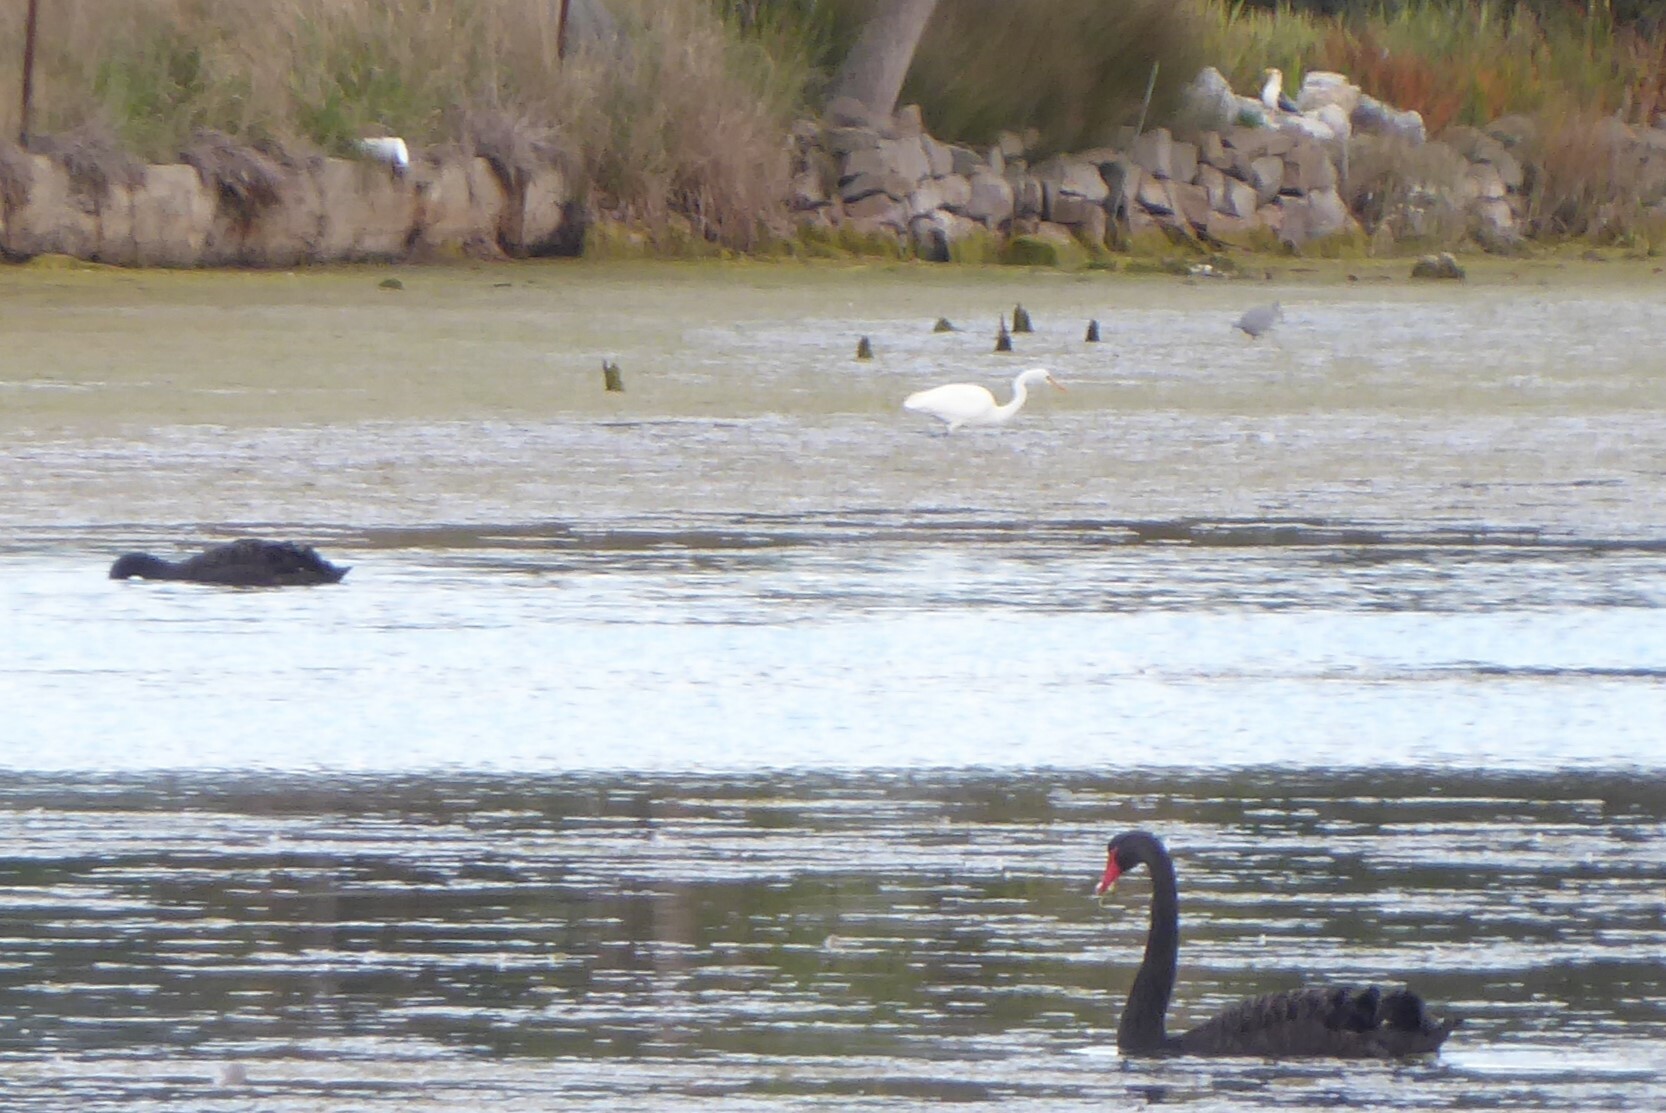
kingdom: Animalia
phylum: Chordata
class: Aves
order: Pelecaniformes
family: Ardeidae
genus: Ardea
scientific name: Ardea modesta
